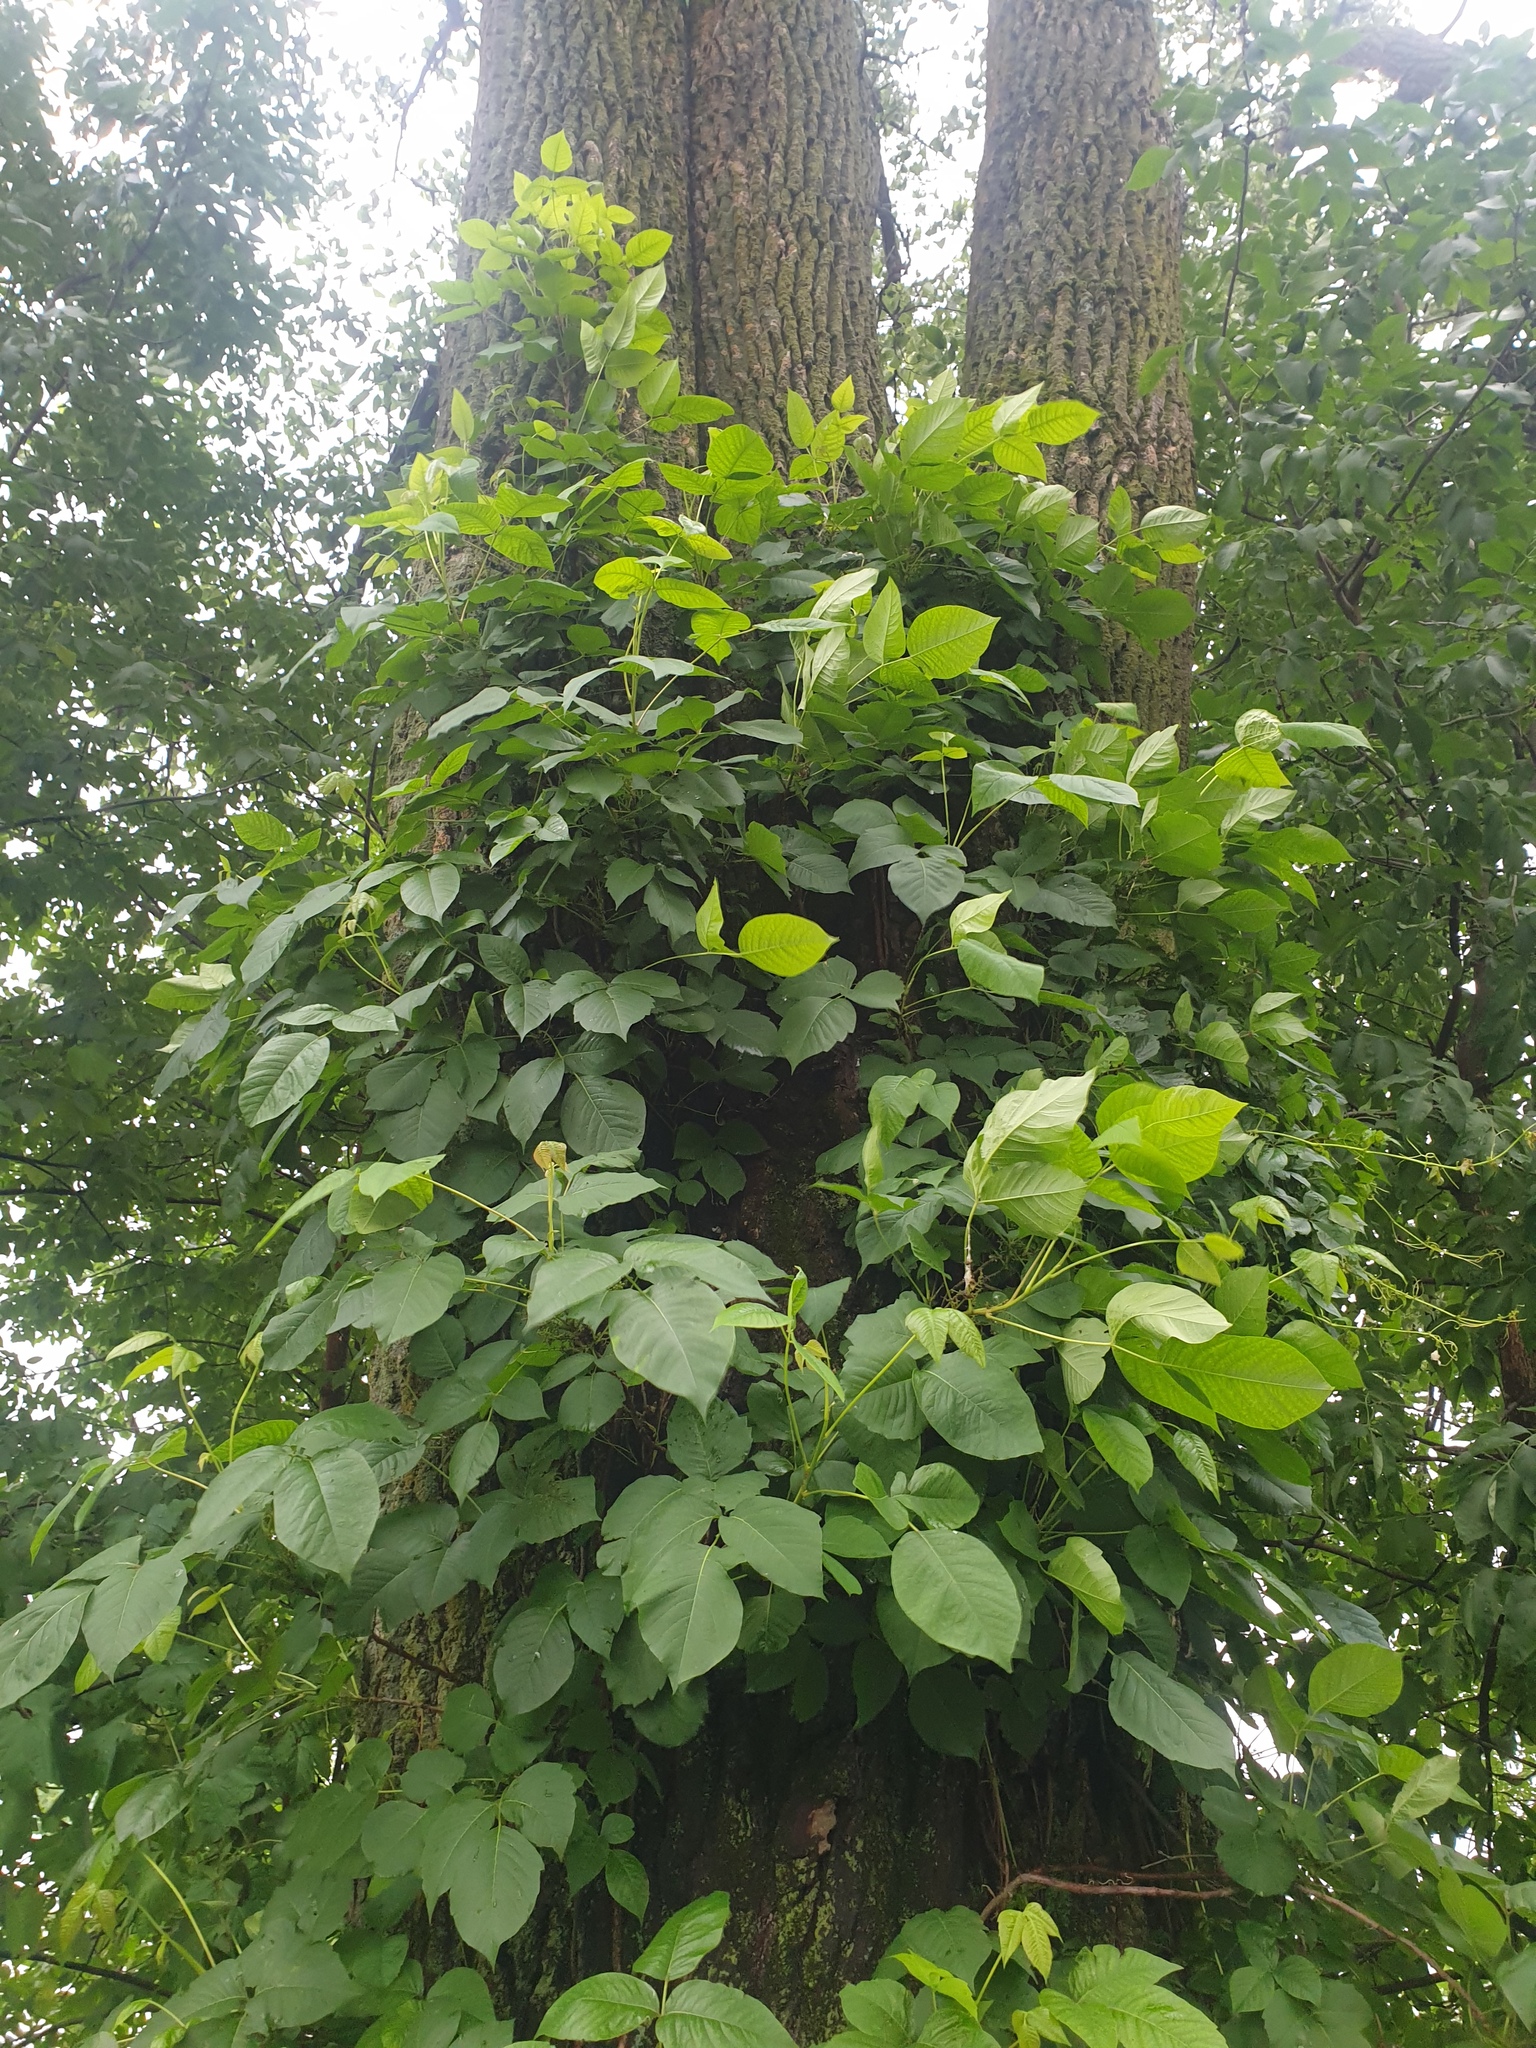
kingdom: Plantae
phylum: Tracheophyta
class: Magnoliopsida
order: Sapindales
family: Anacardiaceae
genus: Toxicodendron
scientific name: Toxicodendron radicans
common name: Poison ivy
